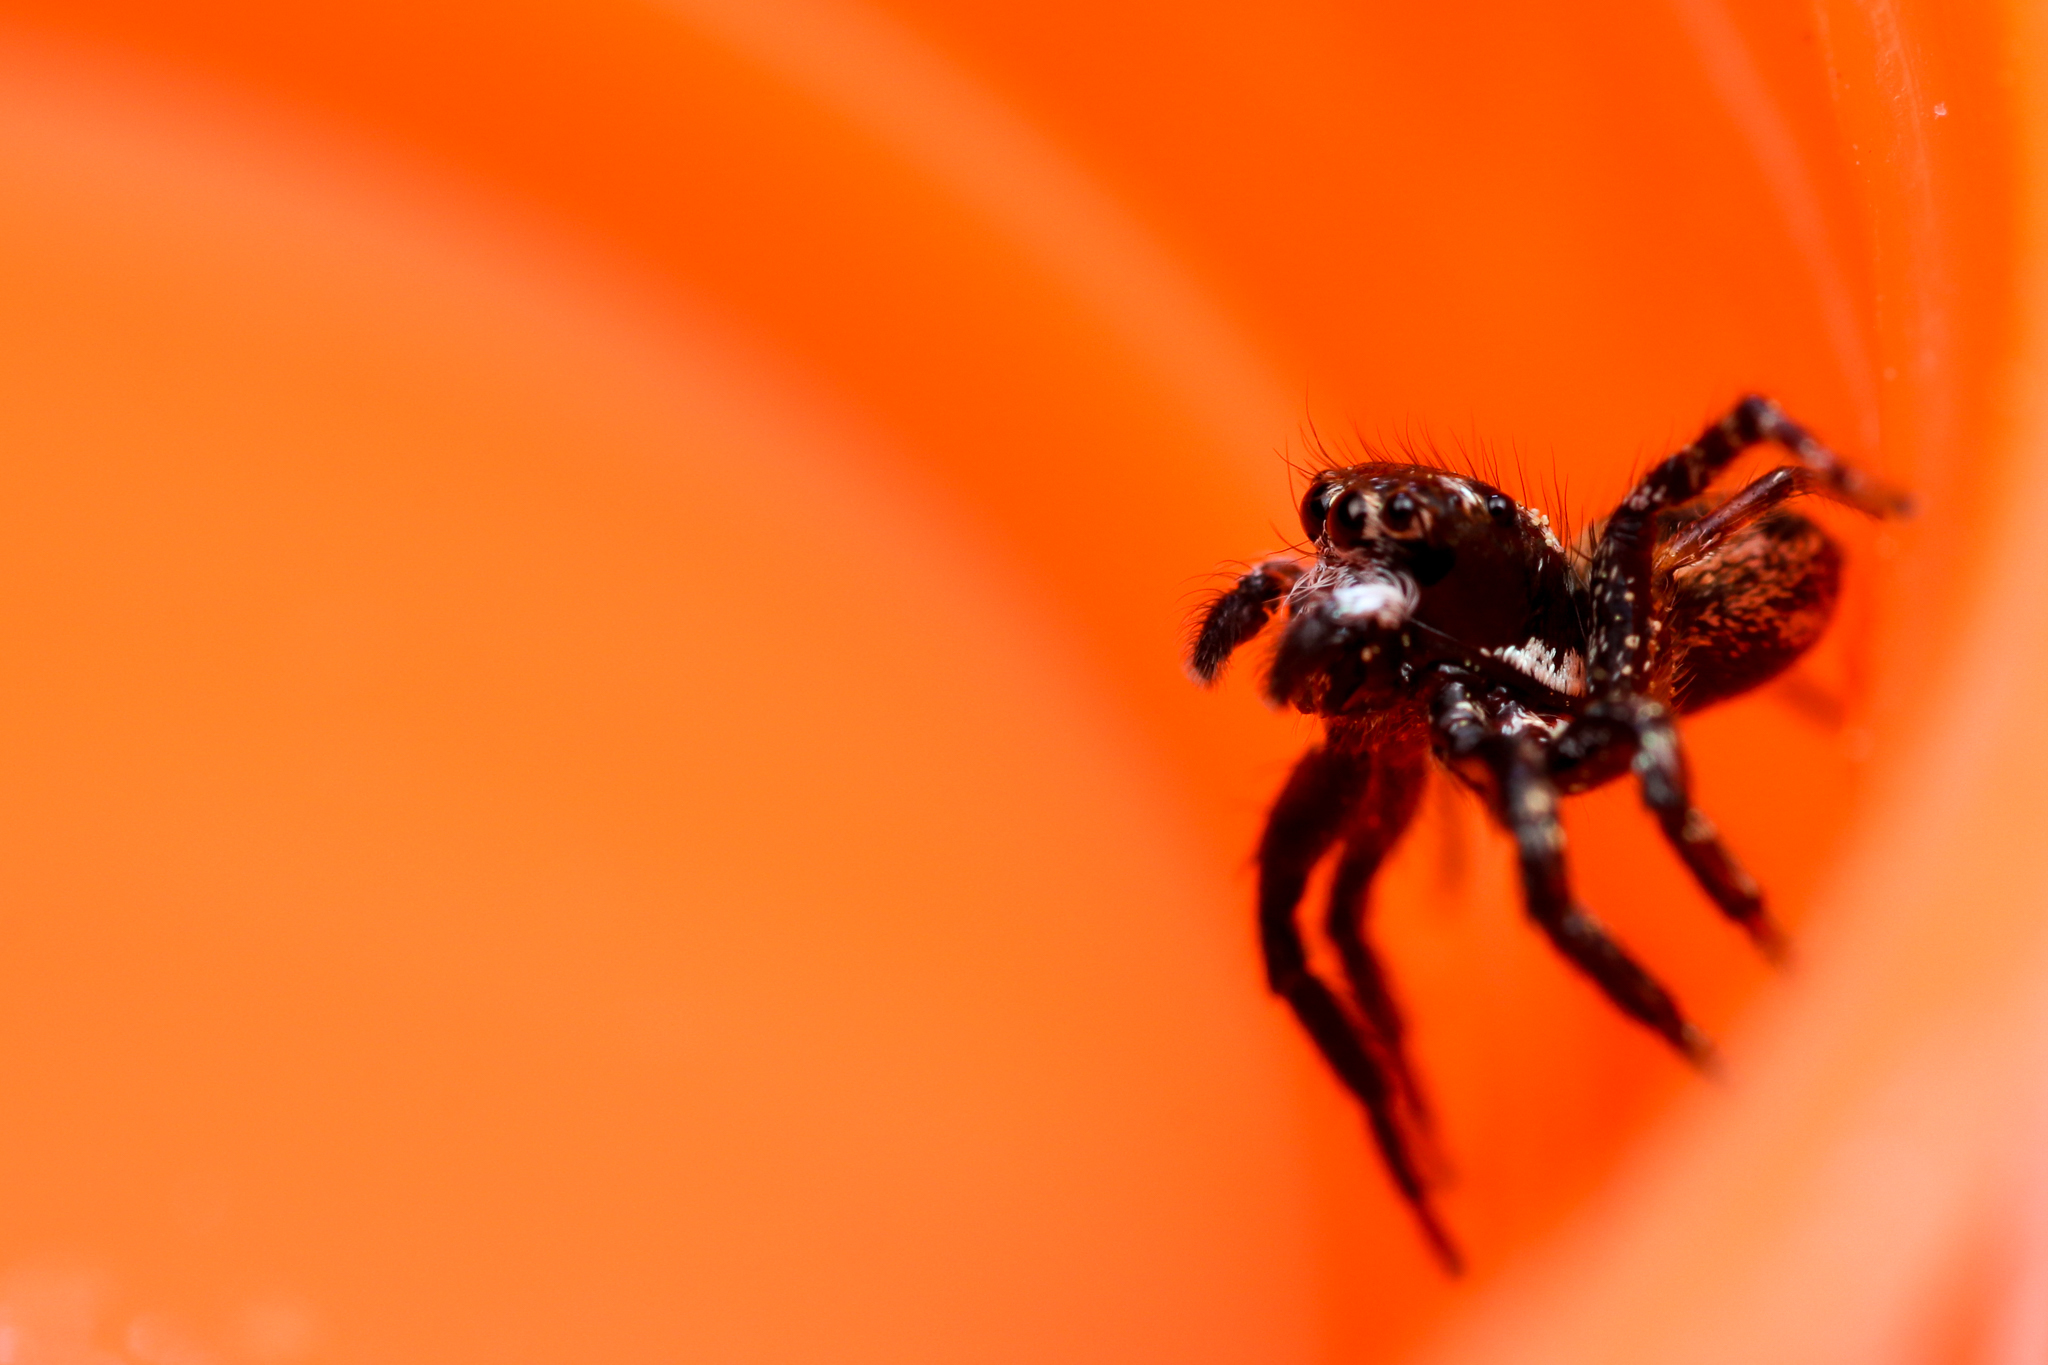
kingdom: Animalia
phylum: Arthropoda
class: Arachnida
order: Araneae
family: Salticidae
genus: Anasaitis
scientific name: Anasaitis canosa
